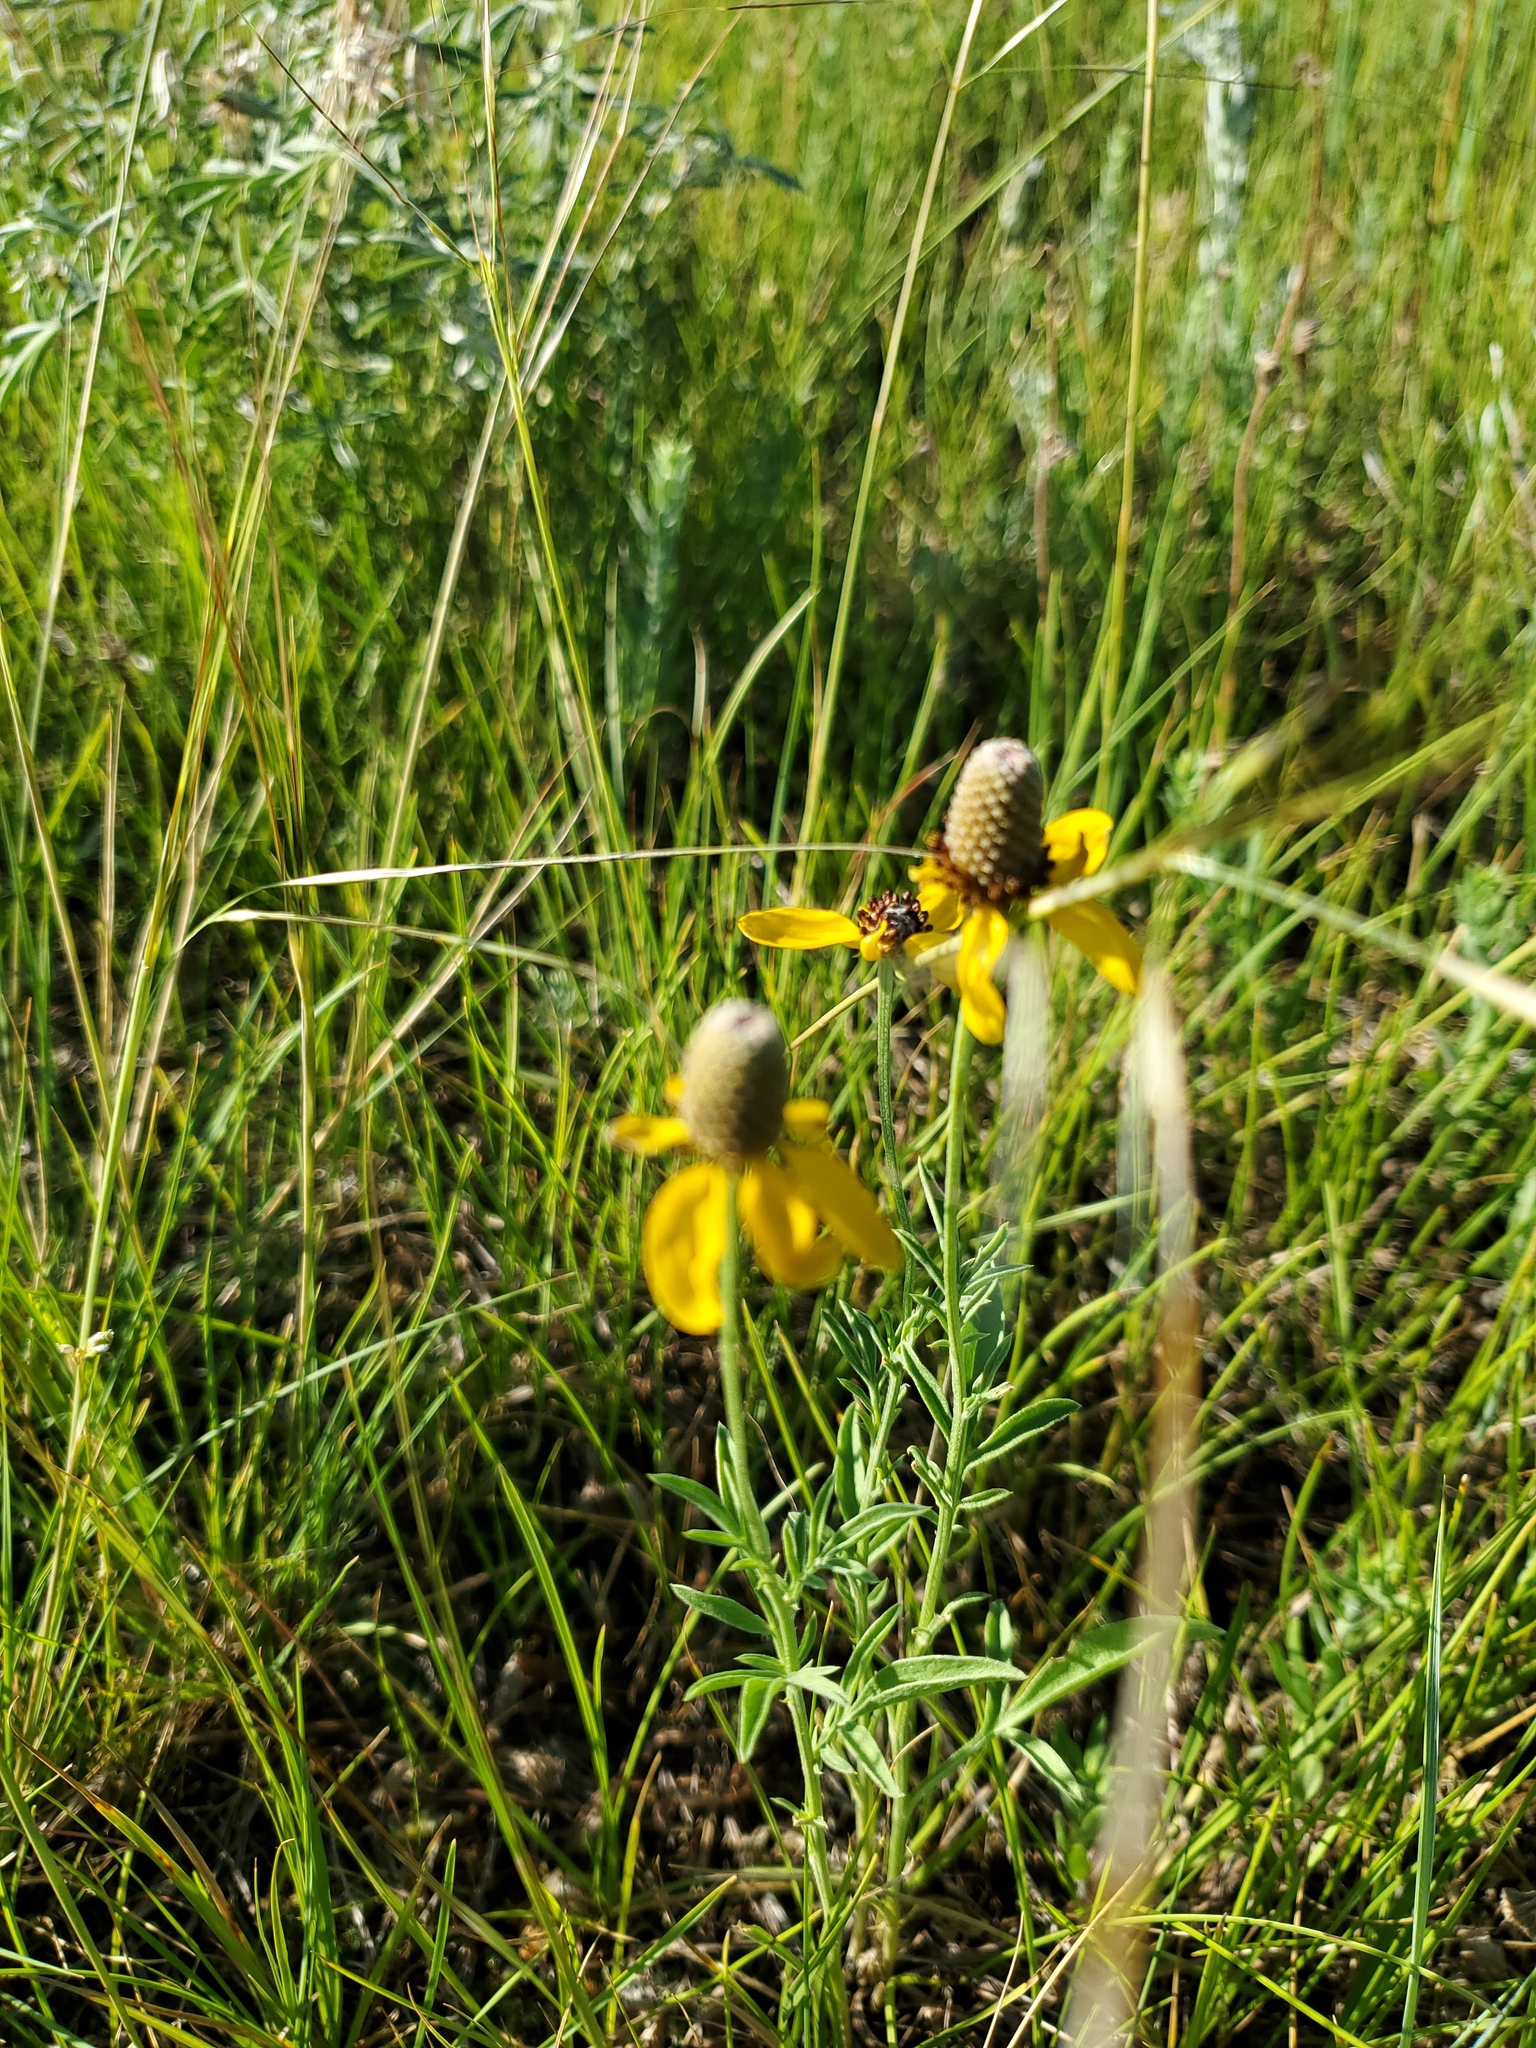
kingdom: Plantae
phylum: Tracheophyta
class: Magnoliopsida
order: Asterales
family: Asteraceae
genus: Ratibida
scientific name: Ratibida columnifera
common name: Prairie coneflower
